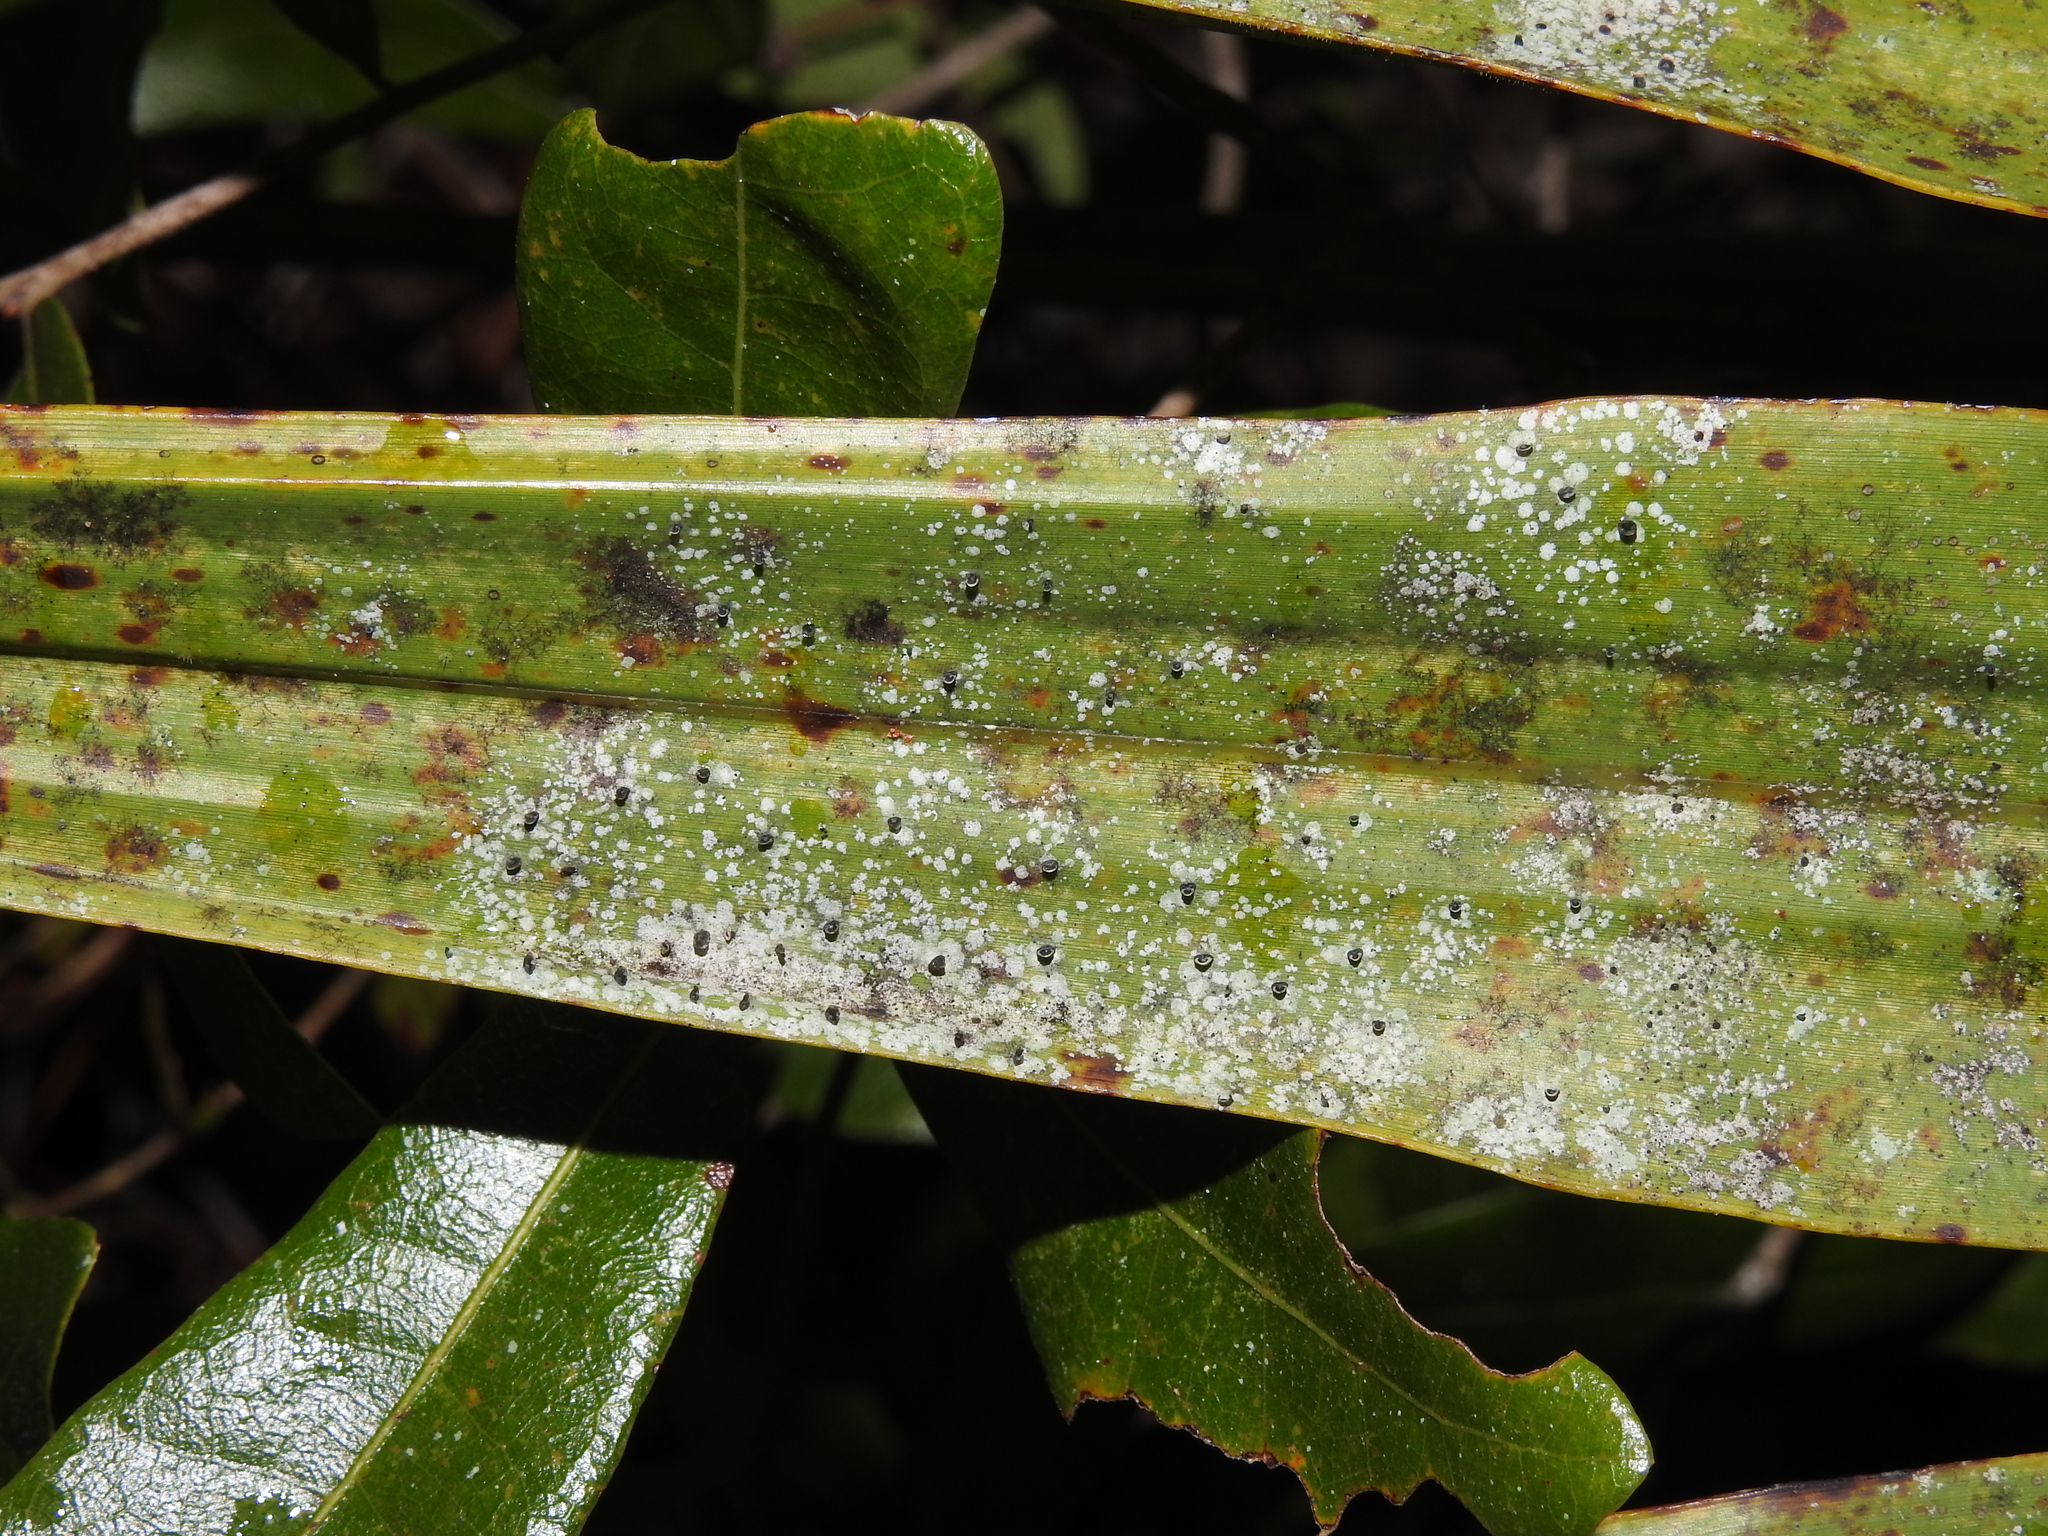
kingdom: Fungi
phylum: Ascomycota
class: Lecanoromycetes
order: Lecanorales
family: Byssolomataceae
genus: Calopadia
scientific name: Calopadia fusca
